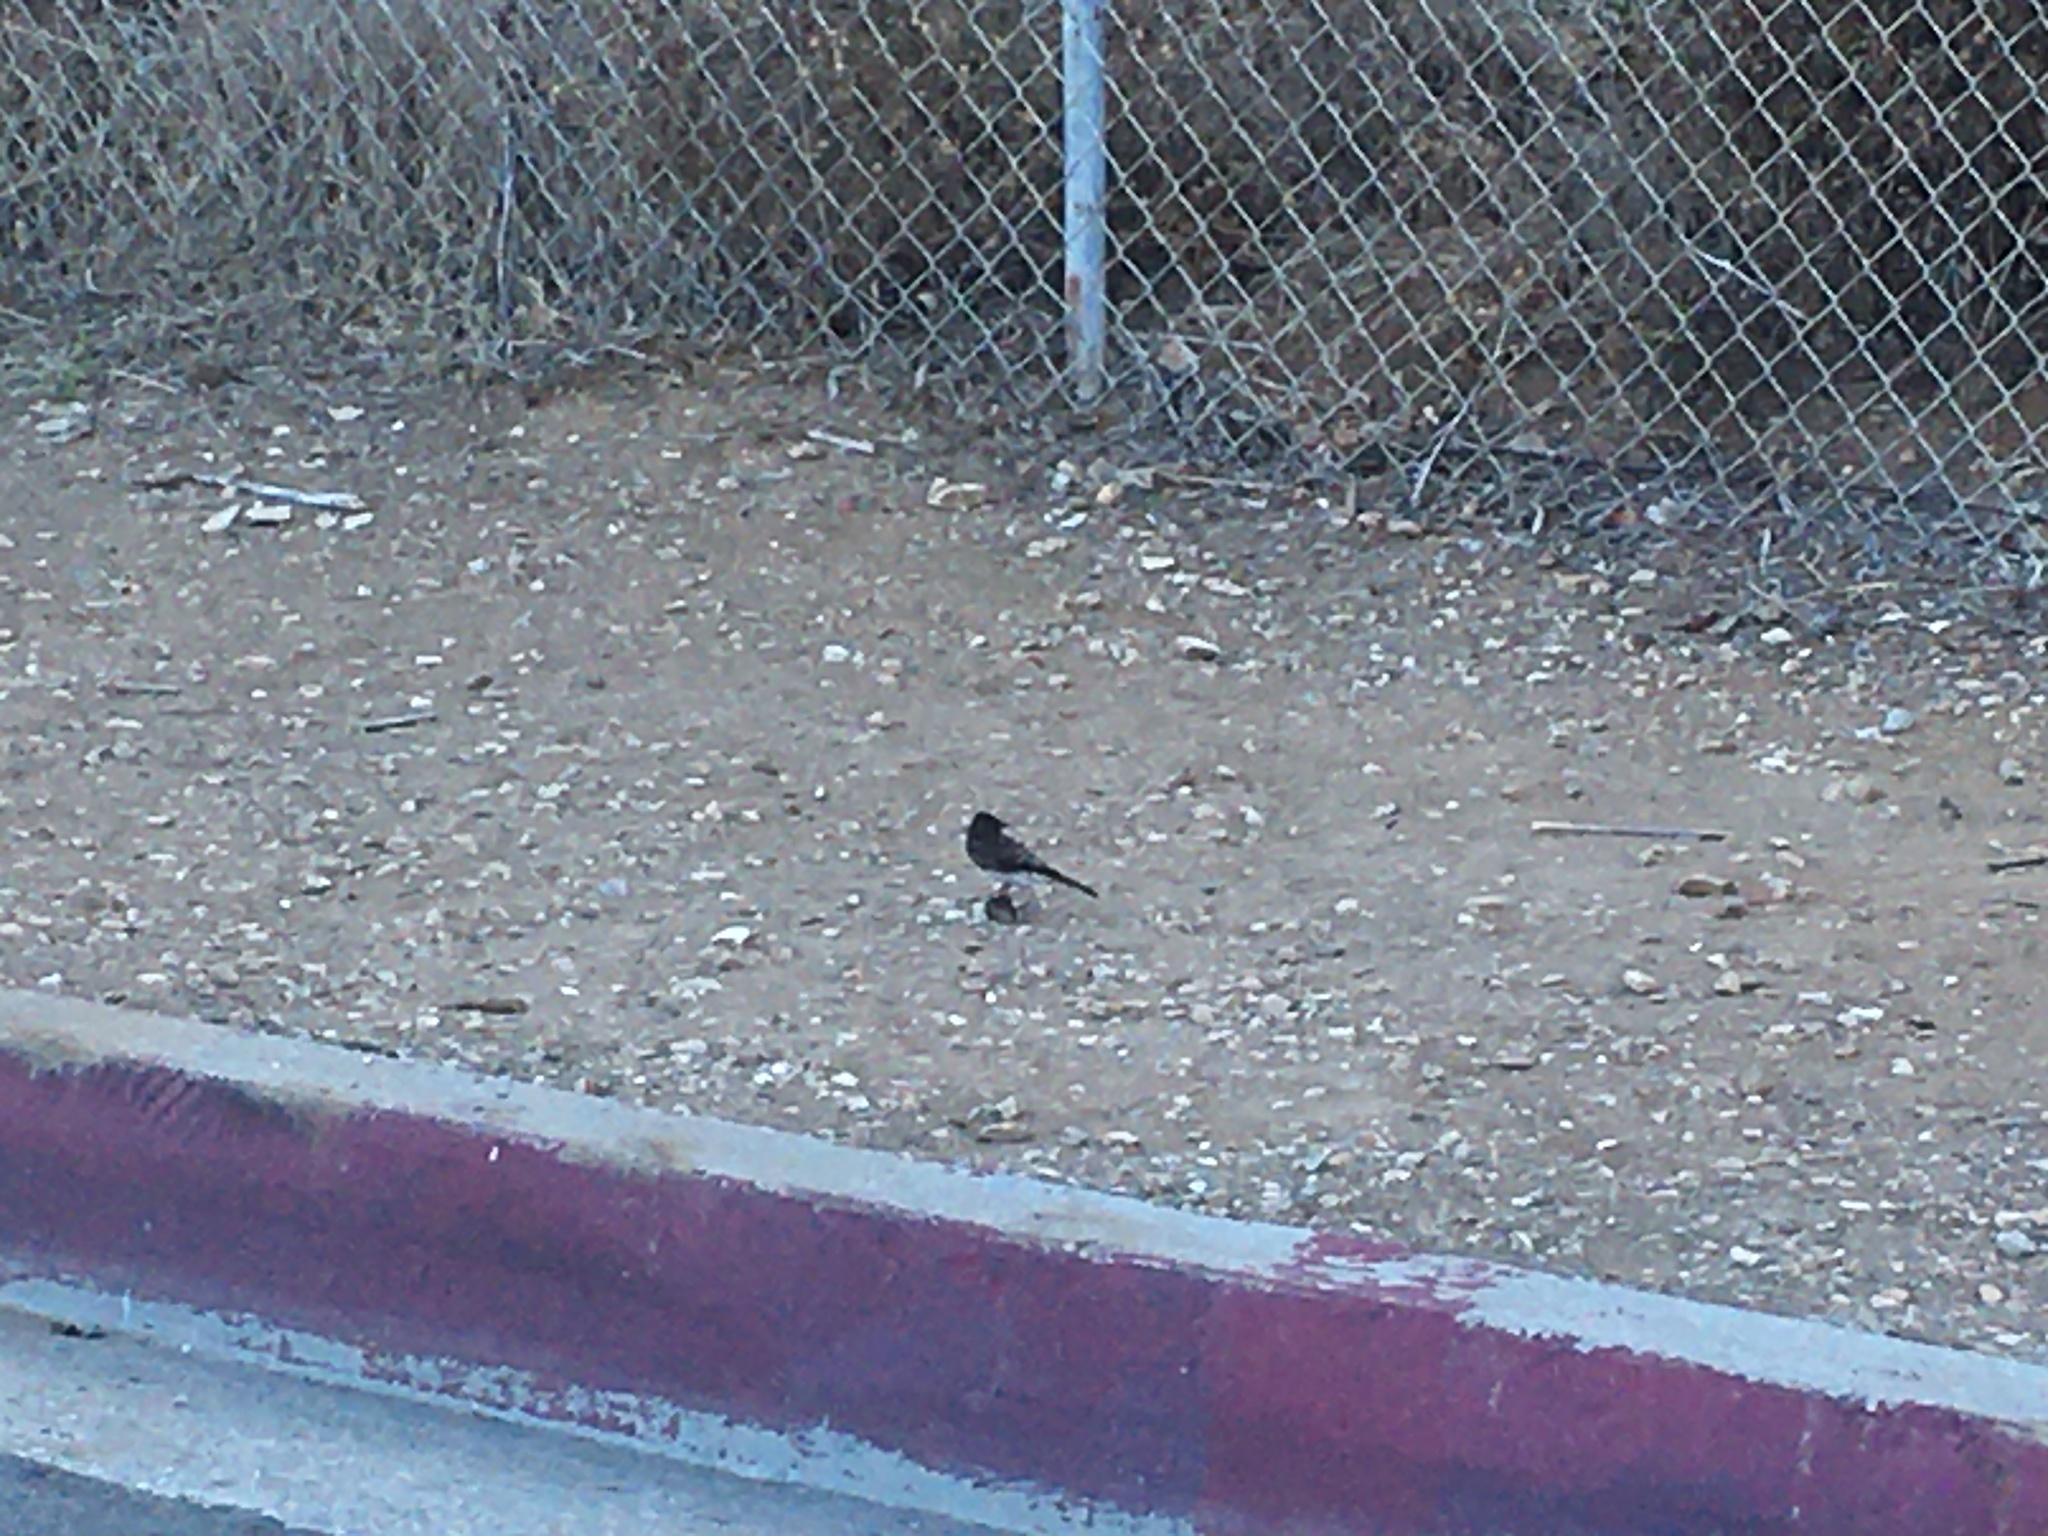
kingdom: Animalia
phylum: Chordata
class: Aves
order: Passeriformes
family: Tyrannidae
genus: Sayornis
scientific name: Sayornis nigricans
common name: Black phoebe
